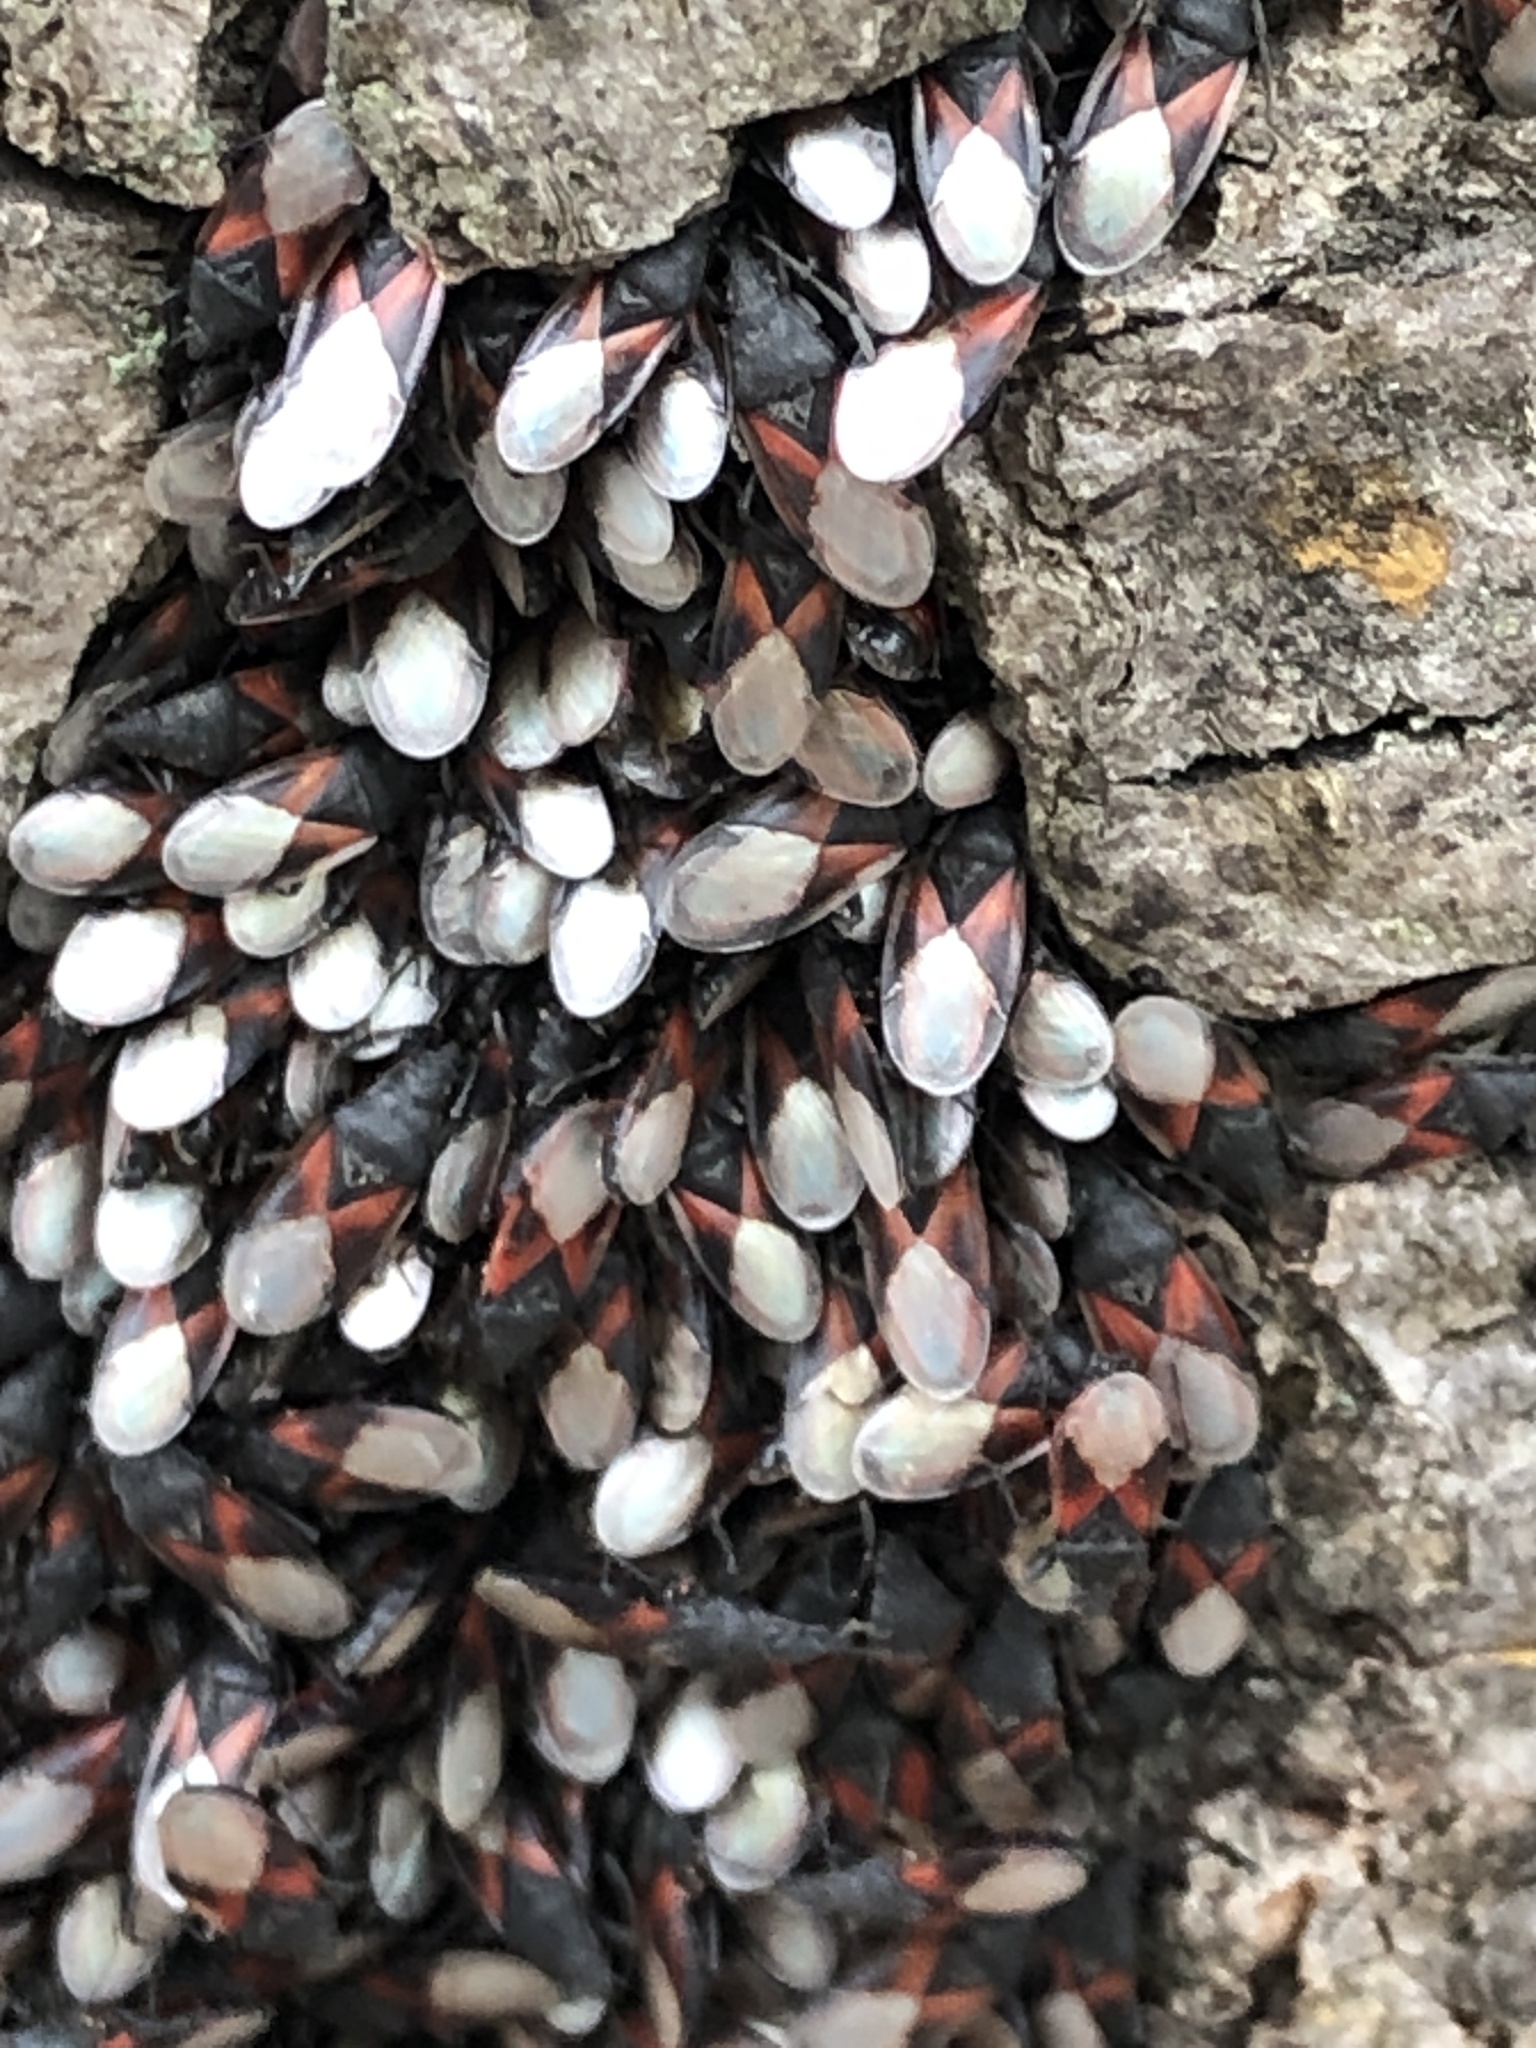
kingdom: Animalia
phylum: Arthropoda
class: Insecta
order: Hemiptera
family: Oxycarenidae
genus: Oxycarenus
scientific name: Oxycarenus lavaterae
